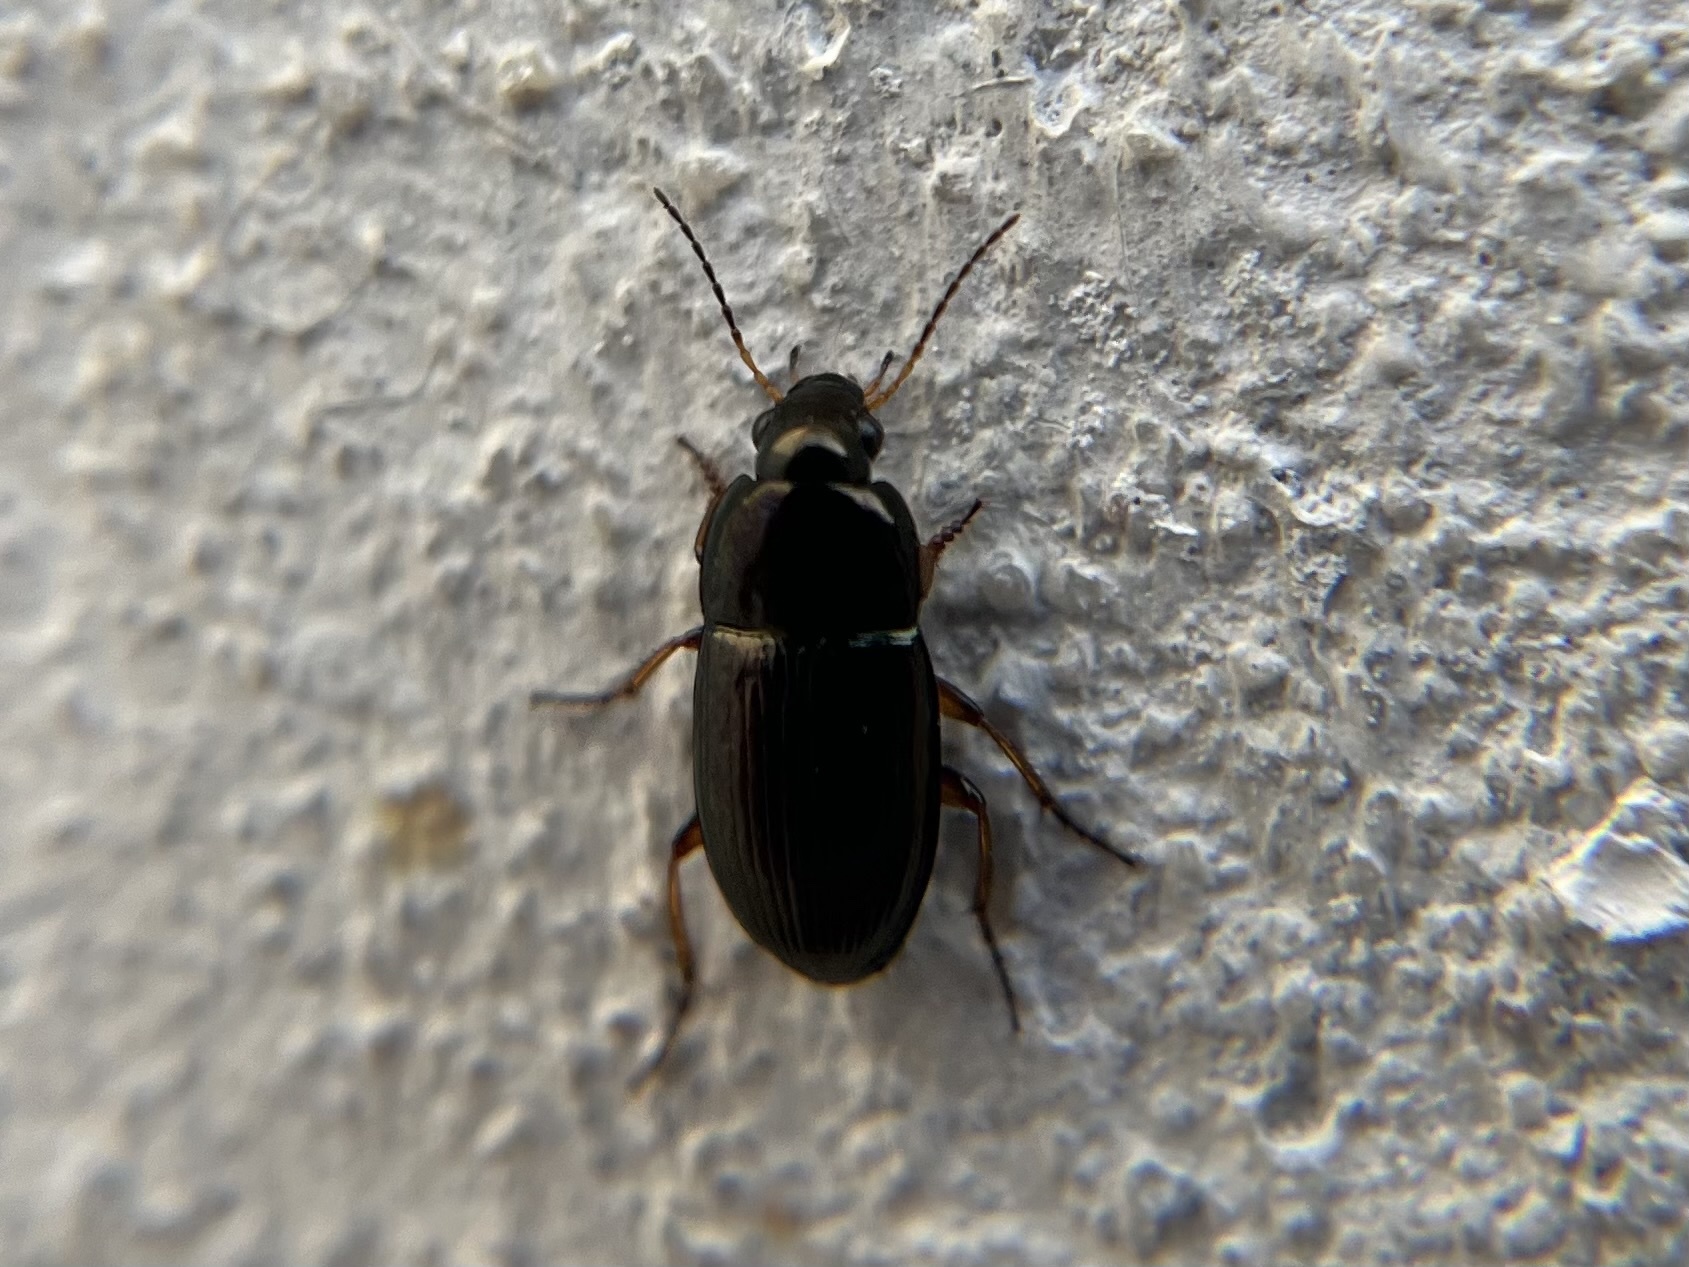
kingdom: Animalia
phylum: Arthropoda
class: Insecta
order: Coleoptera
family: Carabidae
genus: Amara
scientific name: Amara familiaris
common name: Familiar harp round beetle
